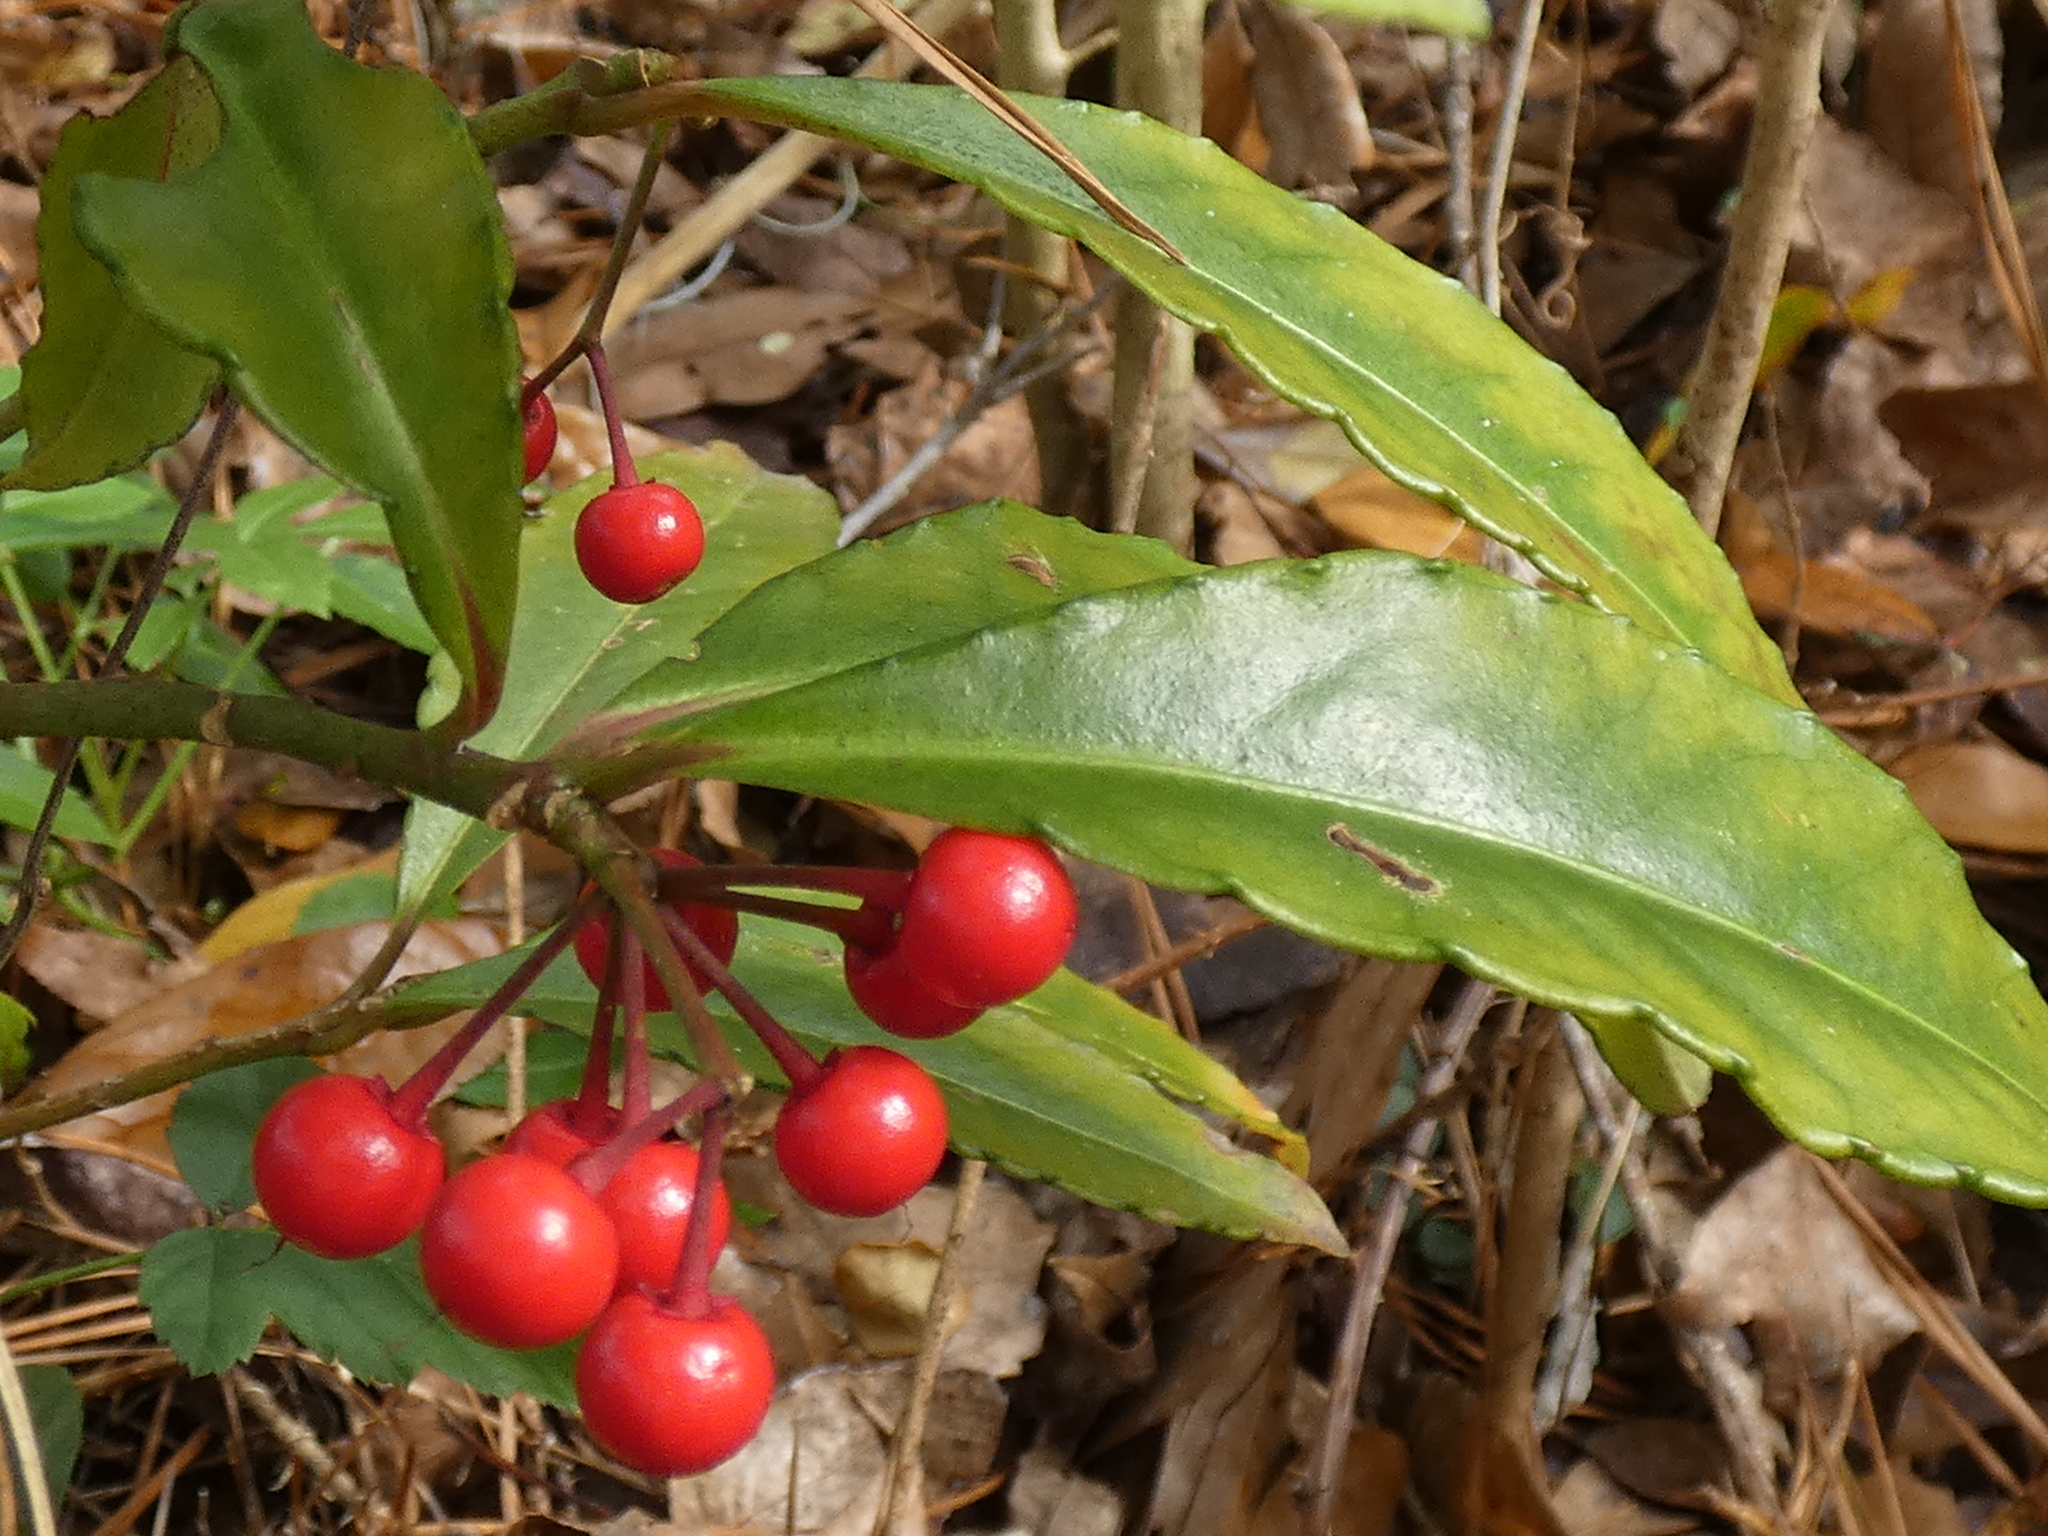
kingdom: Plantae
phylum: Tracheophyta
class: Magnoliopsida
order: Ericales
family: Primulaceae
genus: Ardisia
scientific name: Ardisia crenata
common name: Hen's eyes
